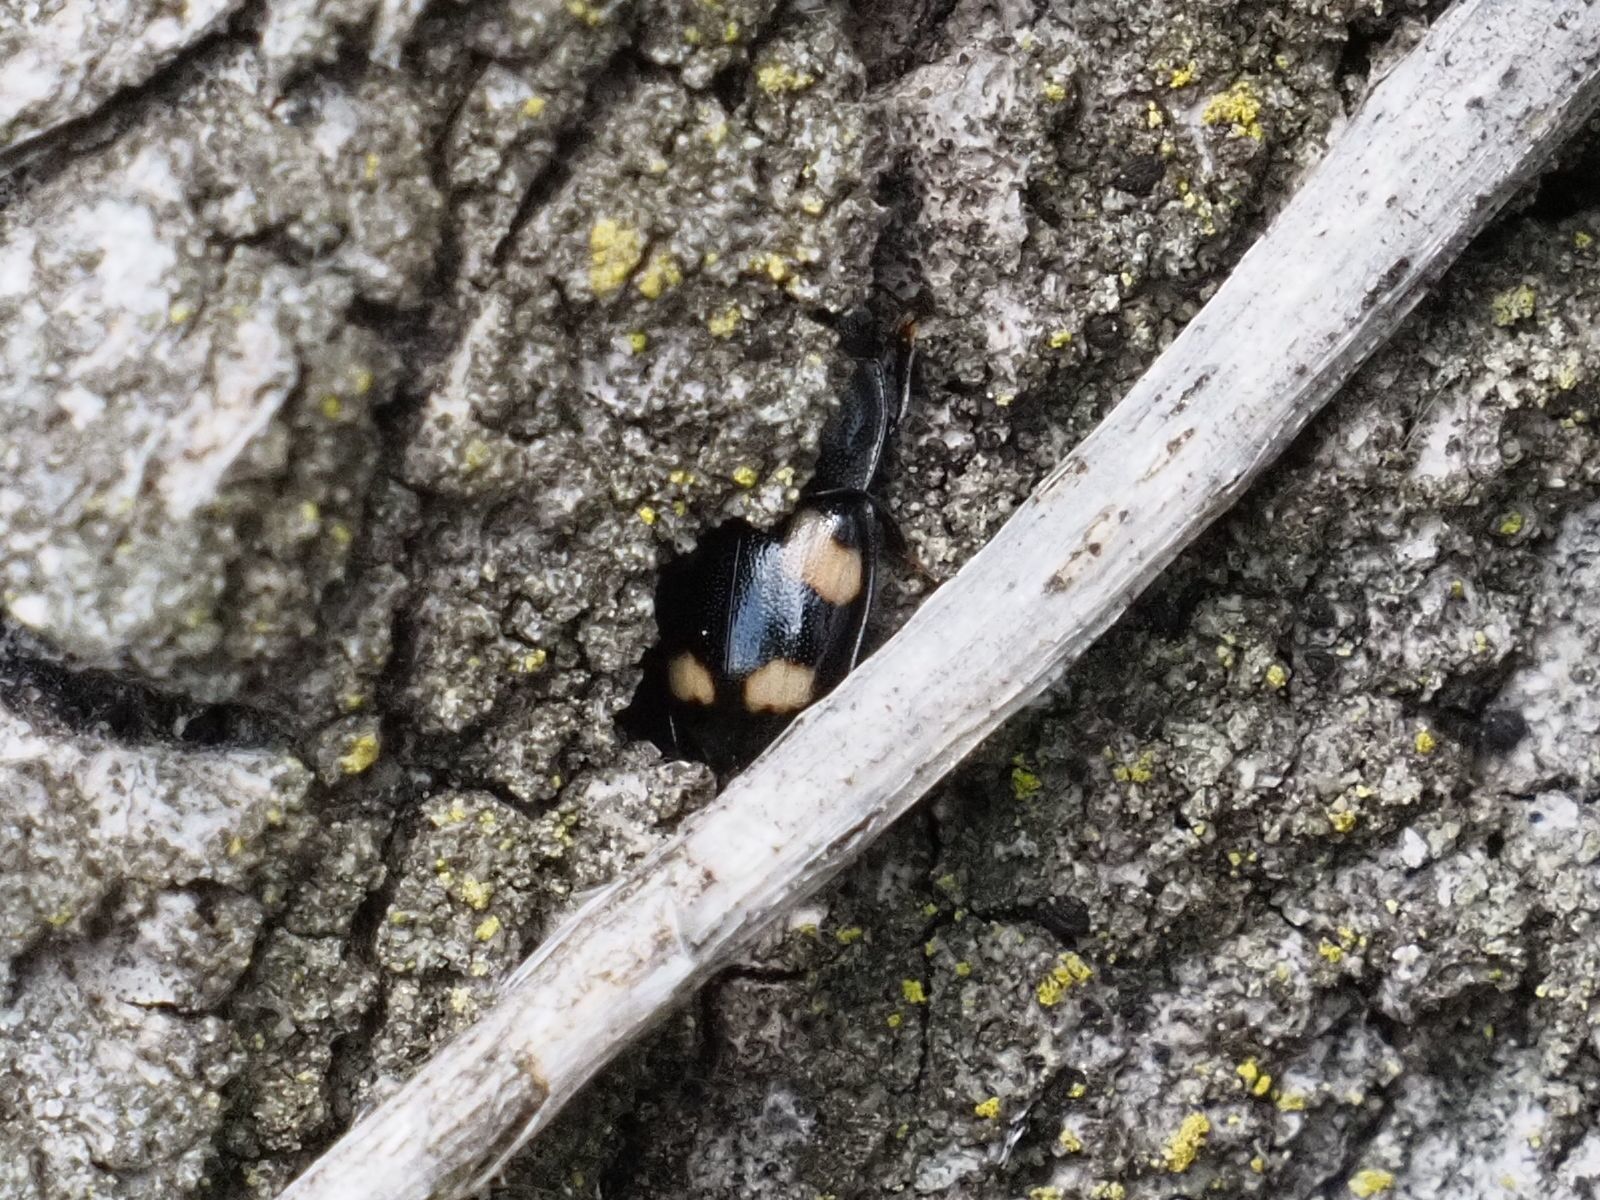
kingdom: Animalia
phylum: Arthropoda
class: Insecta
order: Coleoptera
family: Nitidulidae
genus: Glischrochilus
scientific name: Glischrochilus quadrisignatus
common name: Picnic beetle
